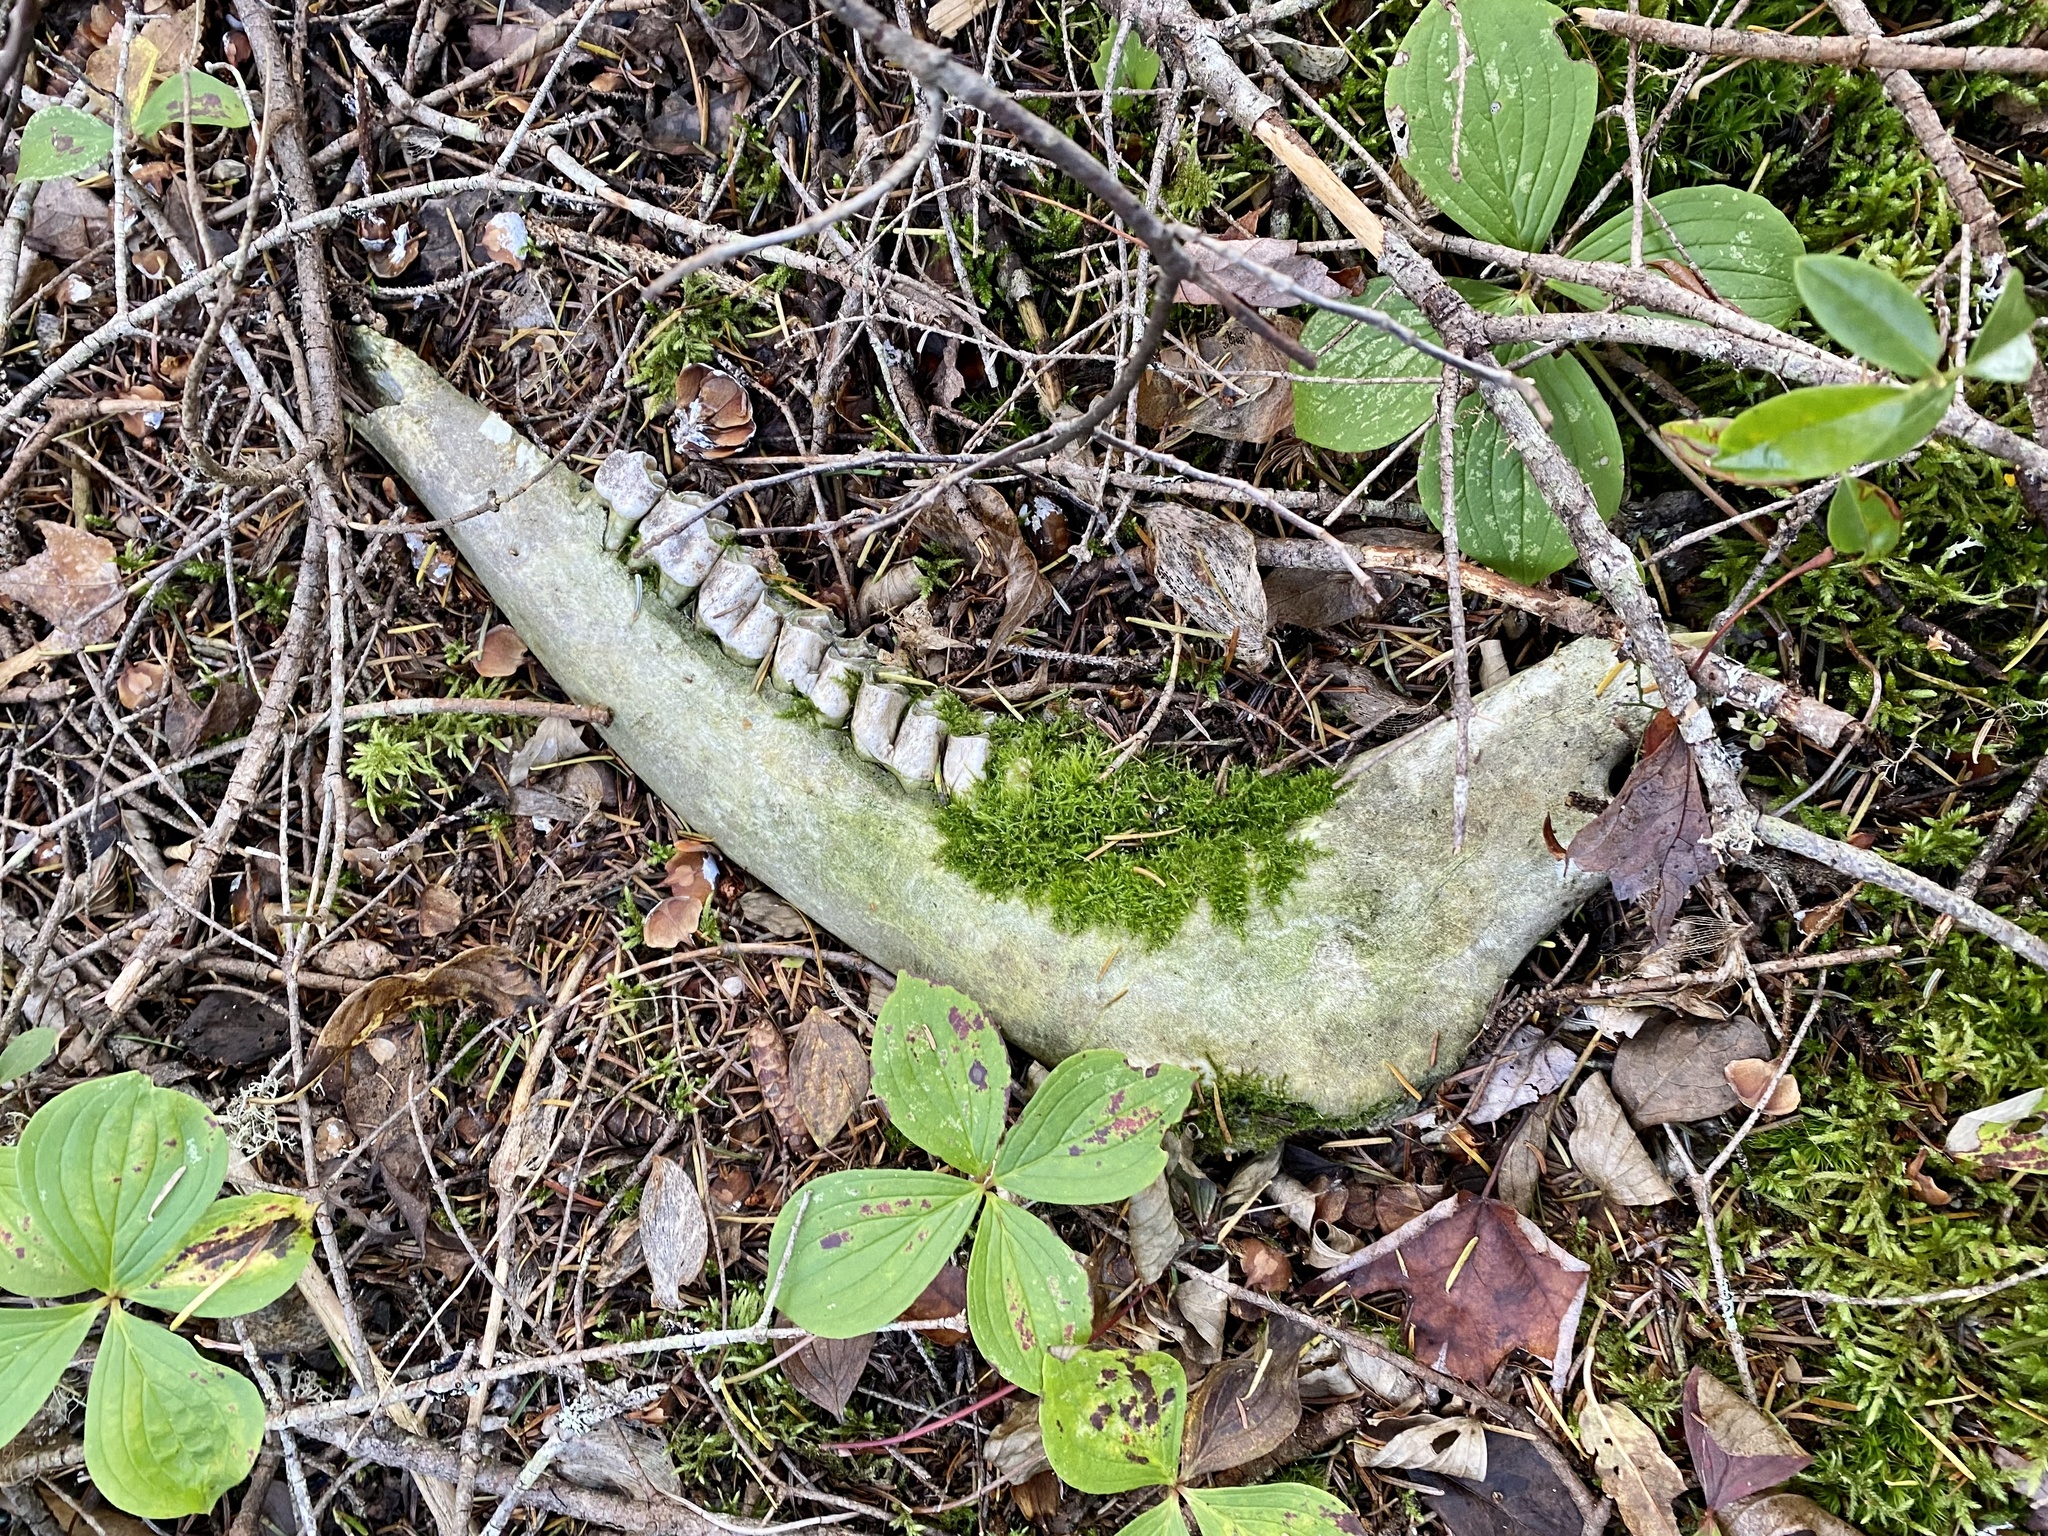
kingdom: Animalia
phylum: Chordata
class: Mammalia
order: Artiodactyla
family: Cervidae
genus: Alces
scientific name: Alces alces
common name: Moose
